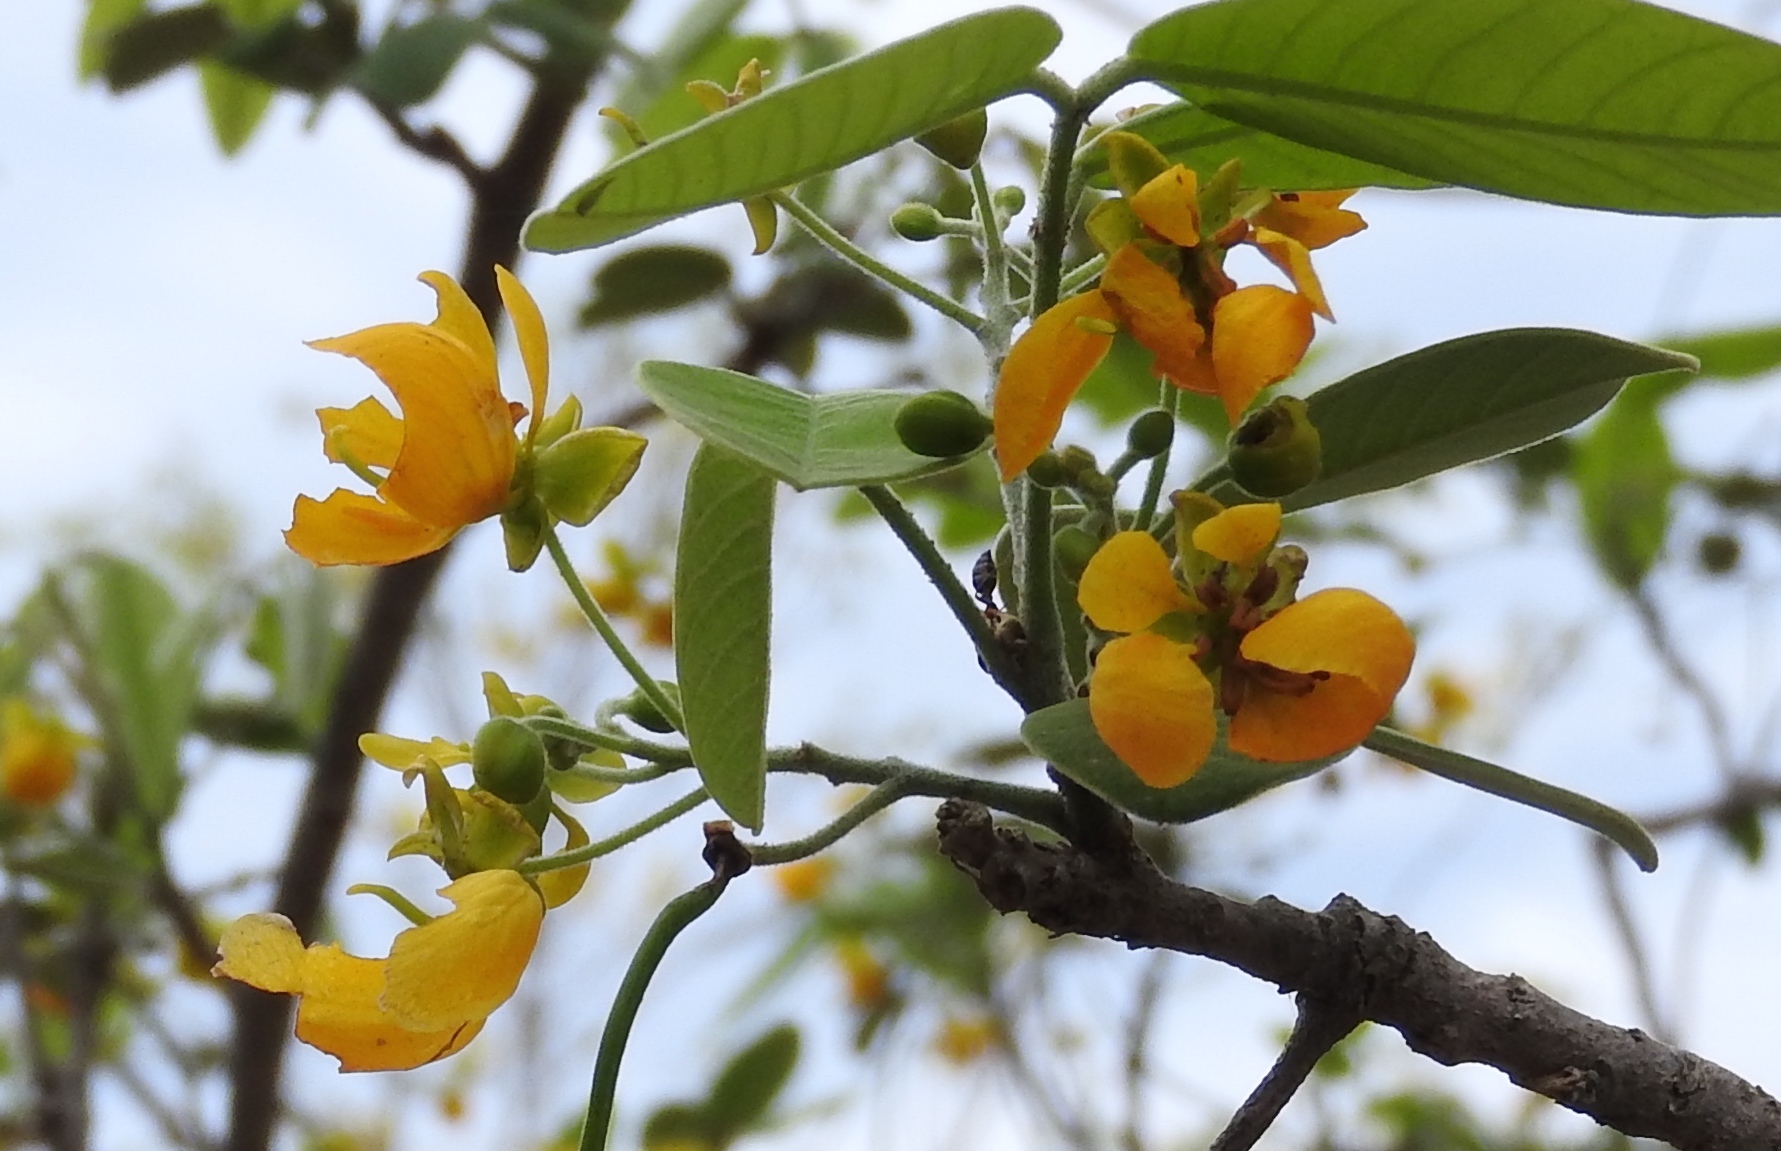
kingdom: Plantae
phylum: Tracheophyta
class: Magnoliopsida
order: Fabales
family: Fabaceae
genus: Senna
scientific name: Senna atomaria
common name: Flor de san jose
